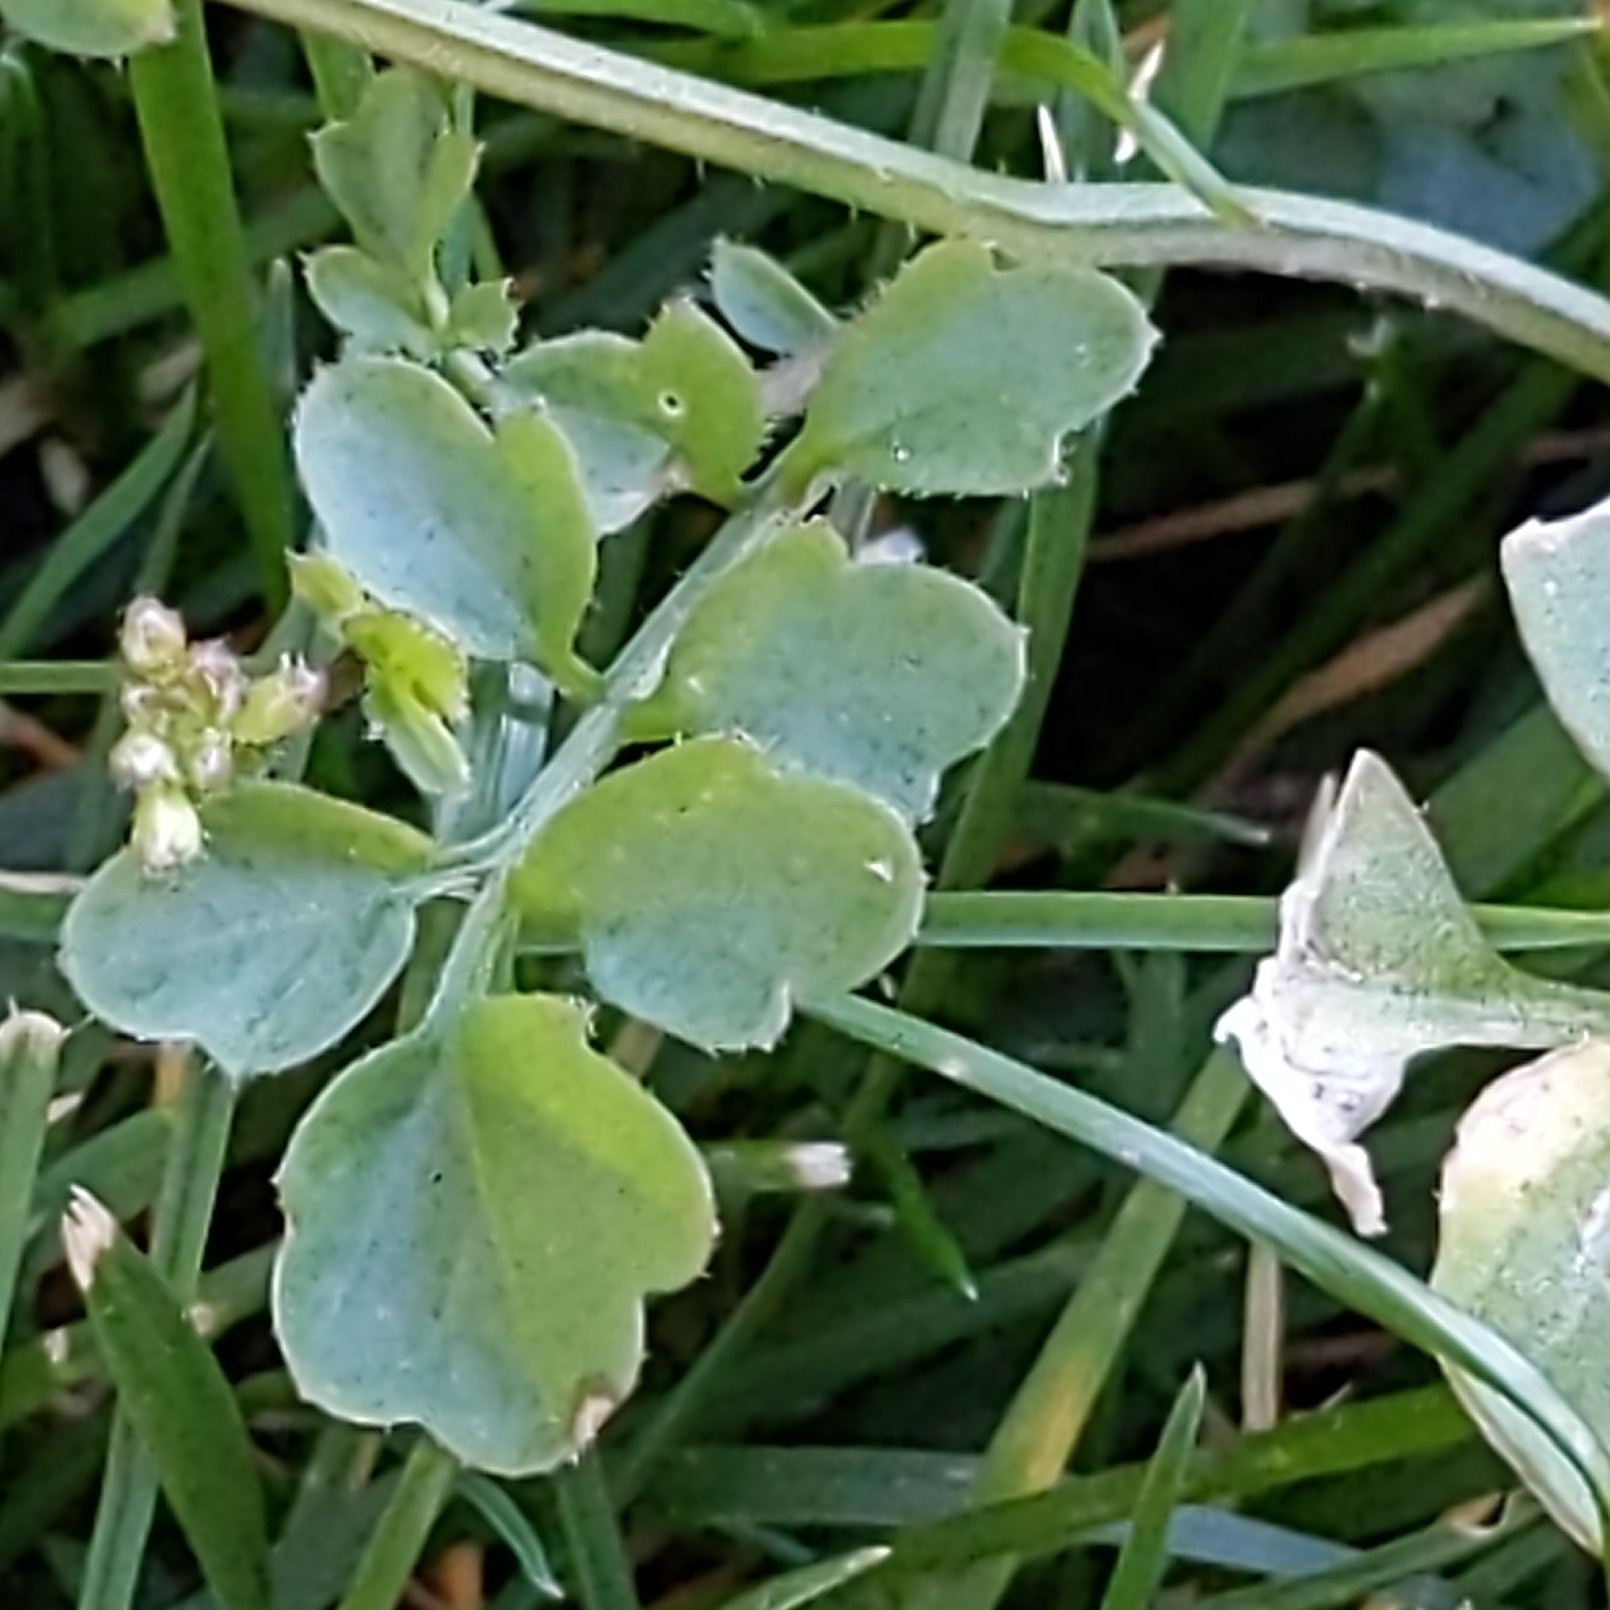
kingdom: Plantae
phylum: Tracheophyta
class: Magnoliopsida
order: Brassicales
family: Brassicaceae
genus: Cardamine
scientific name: Cardamine hirsuta
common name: Hairy bittercress
